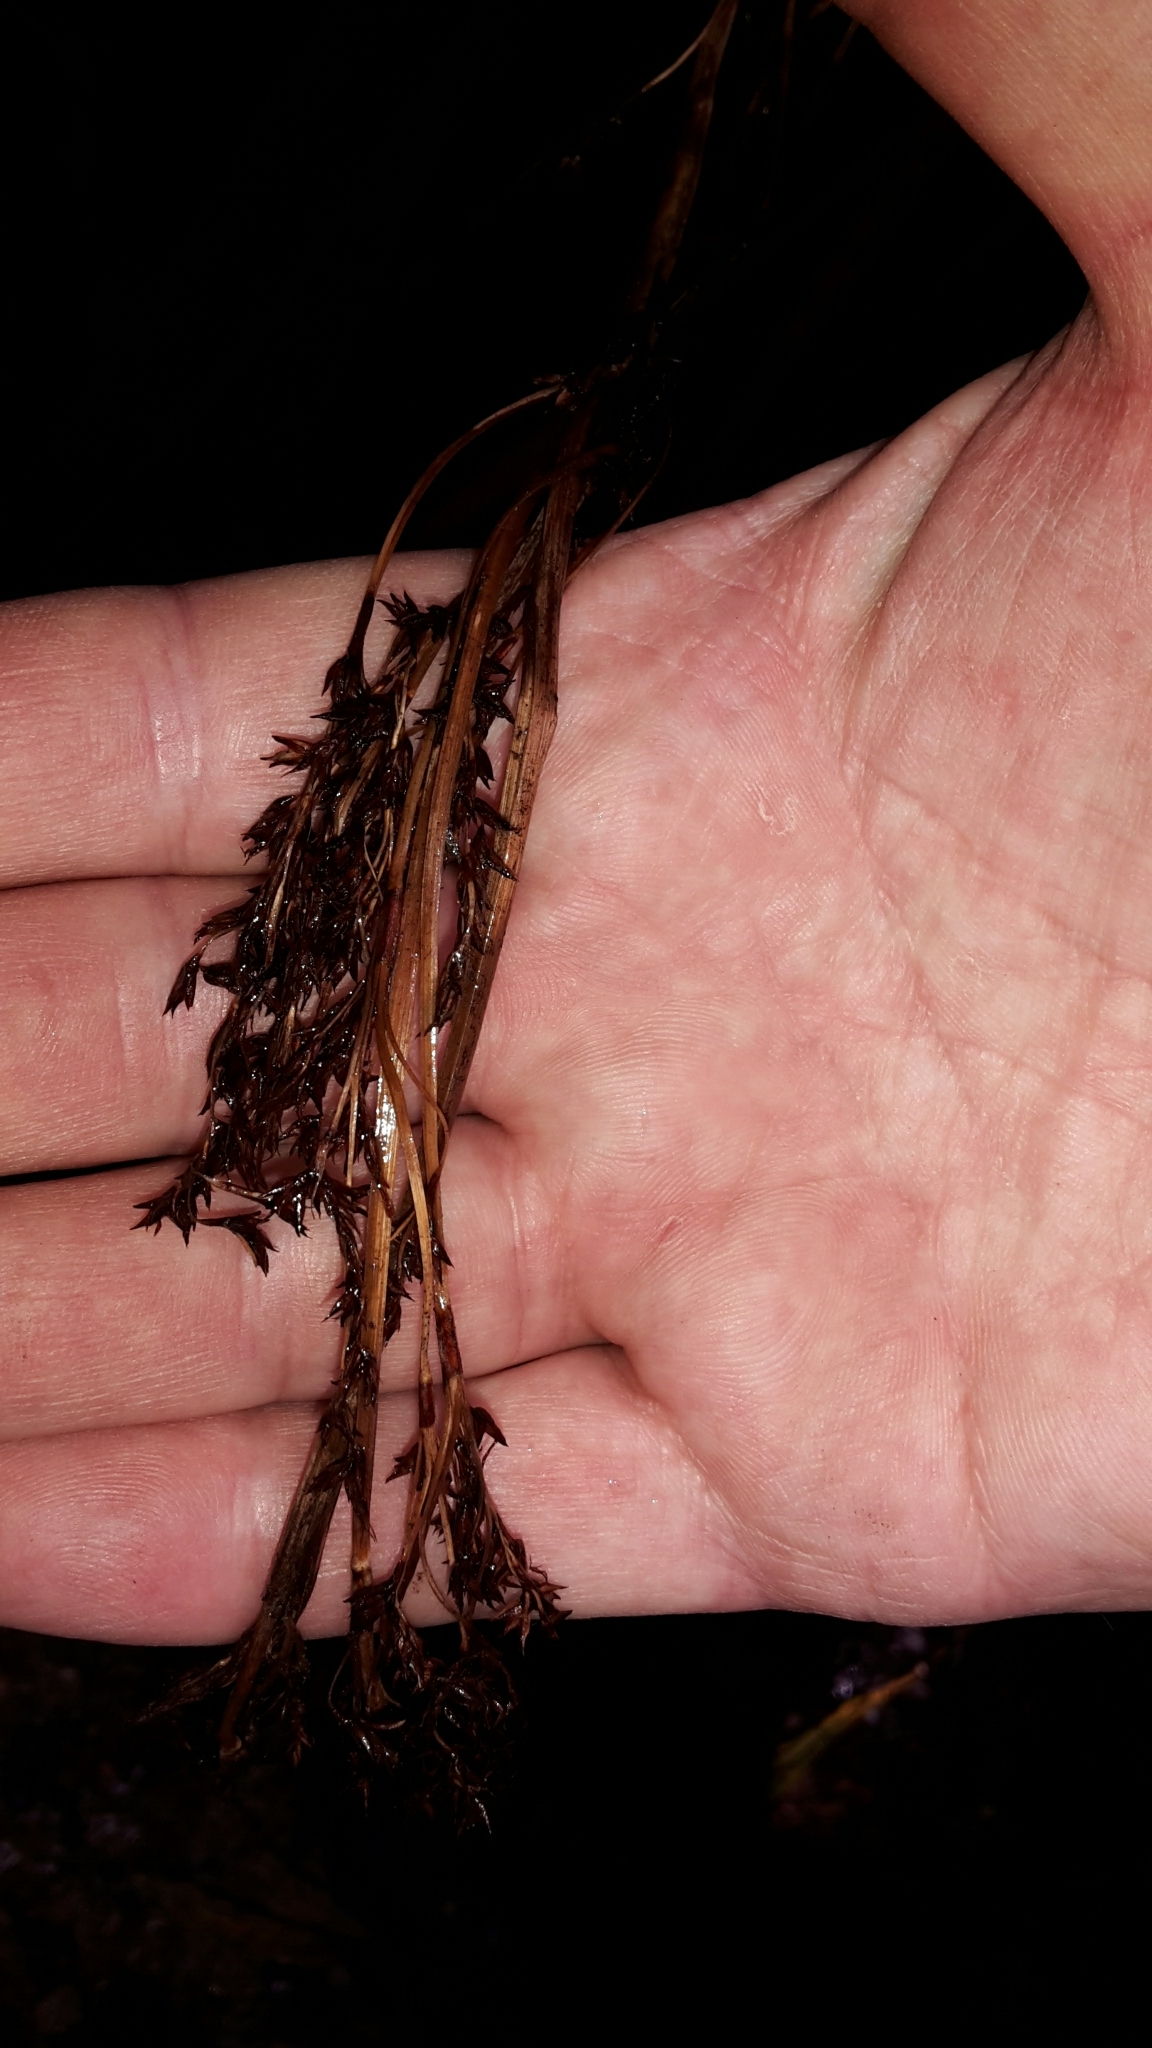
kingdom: Plantae
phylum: Tracheophyta
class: Liliopsida
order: Poales
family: Cyperaceae
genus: Machaerina
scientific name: Machaerina sinclairii
